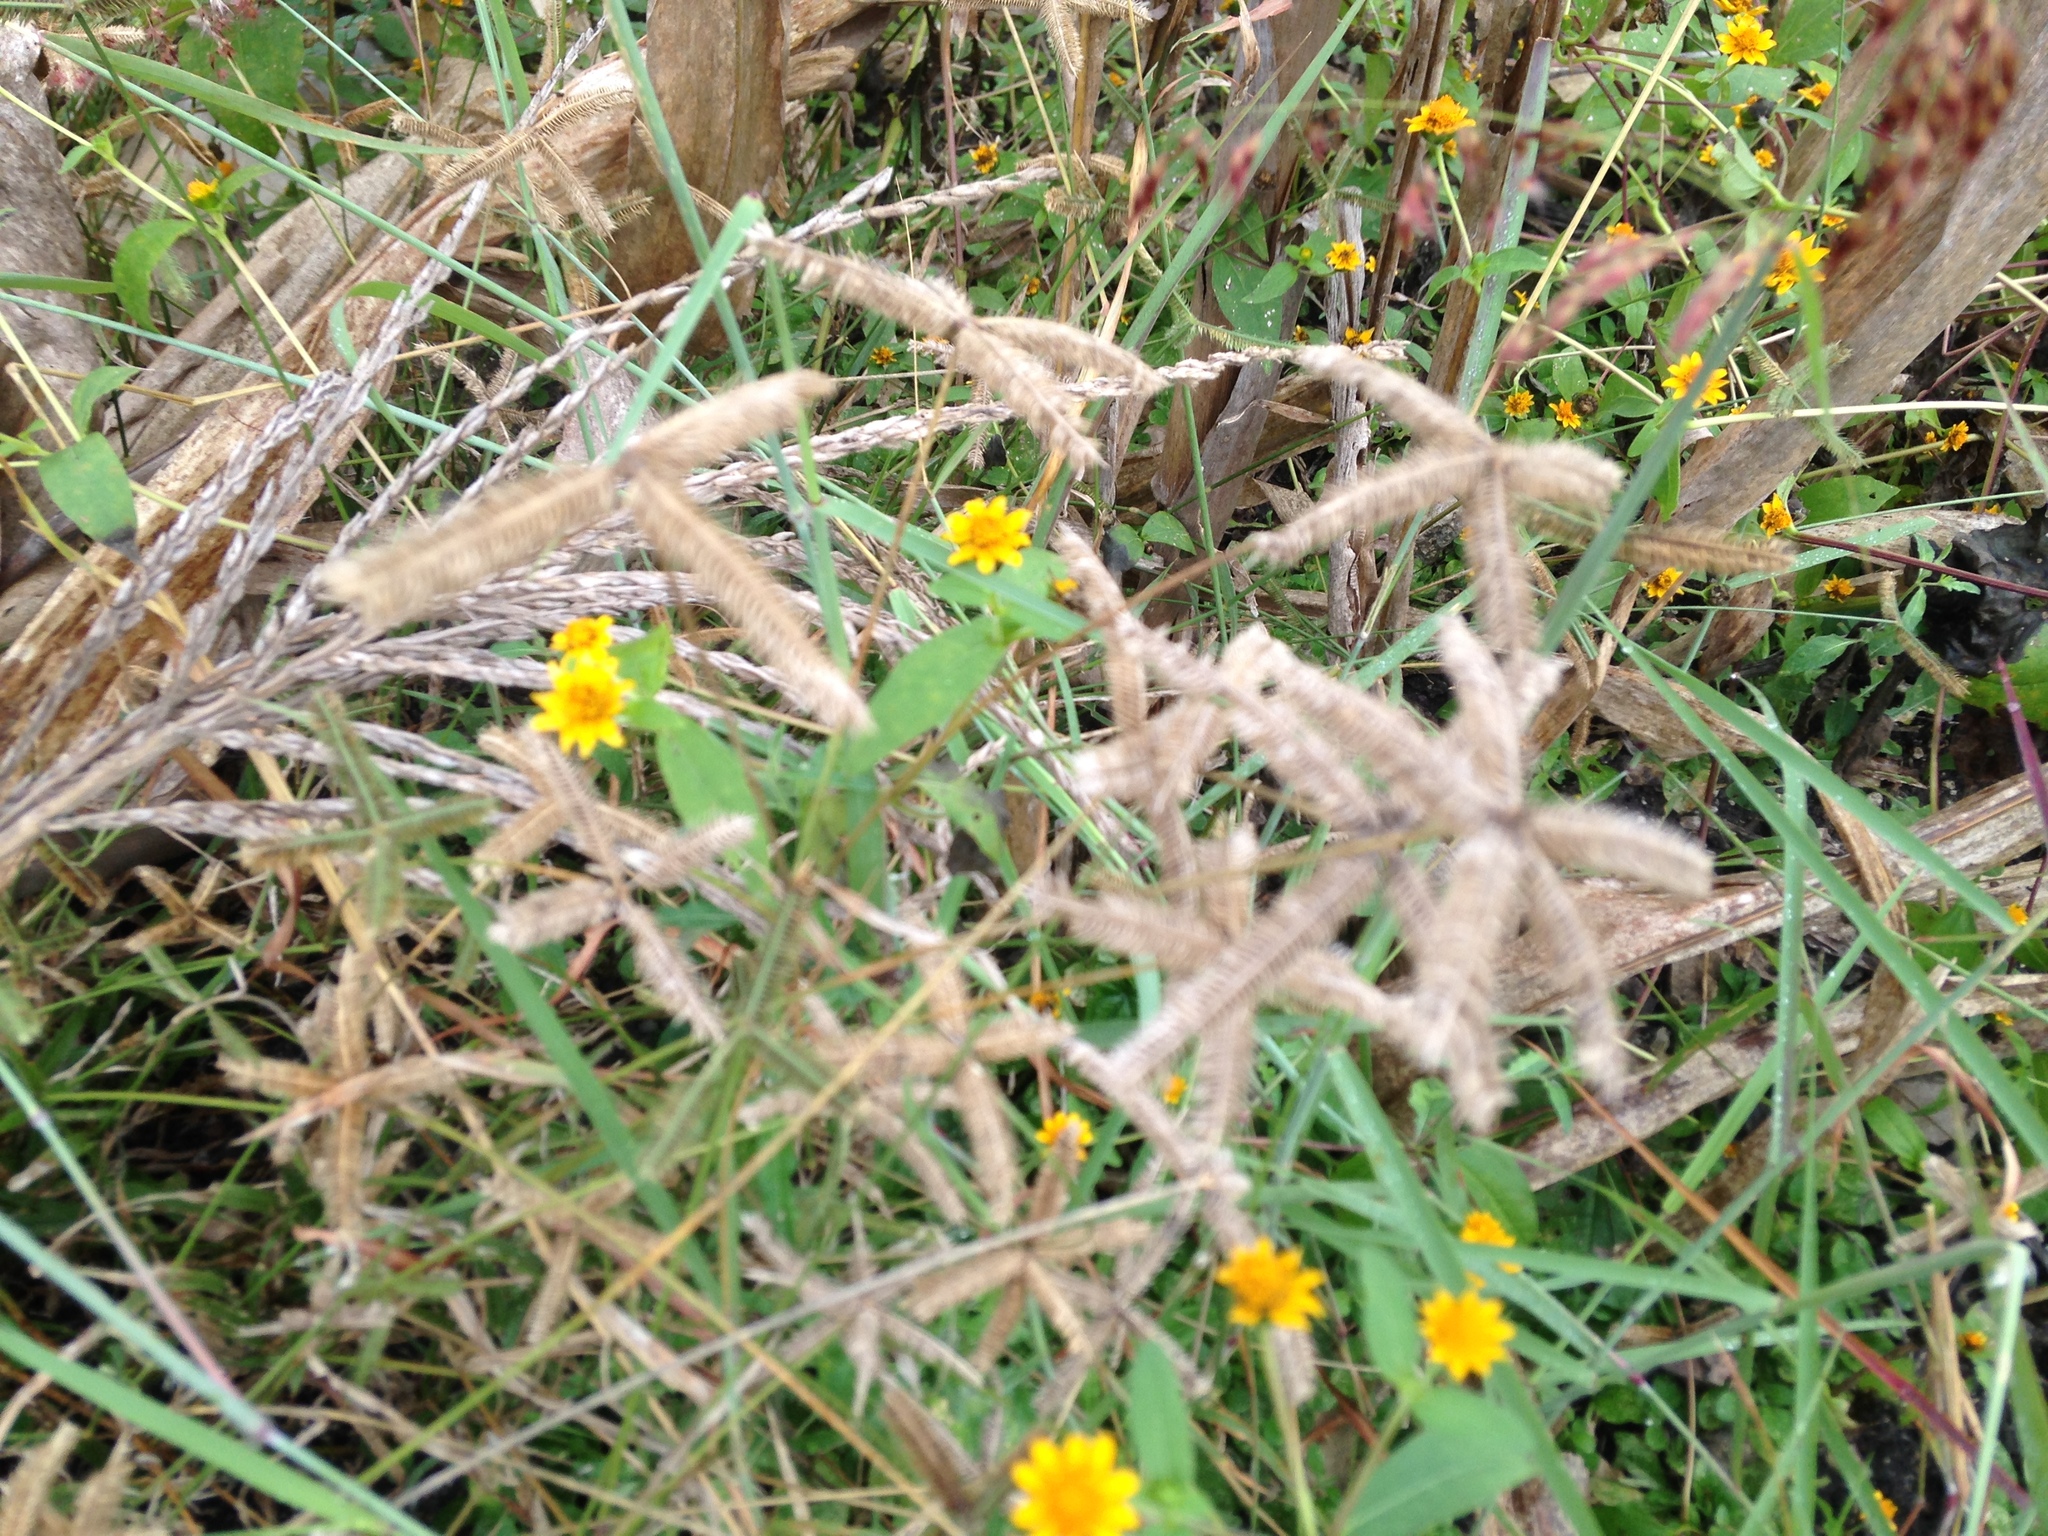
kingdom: Plantae
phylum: Tracheophyta
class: Liliopsida
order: Poales
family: Poaceae
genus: Dactyloctenium
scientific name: Dactyloctenium aegyptium
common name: Egyptian grass
